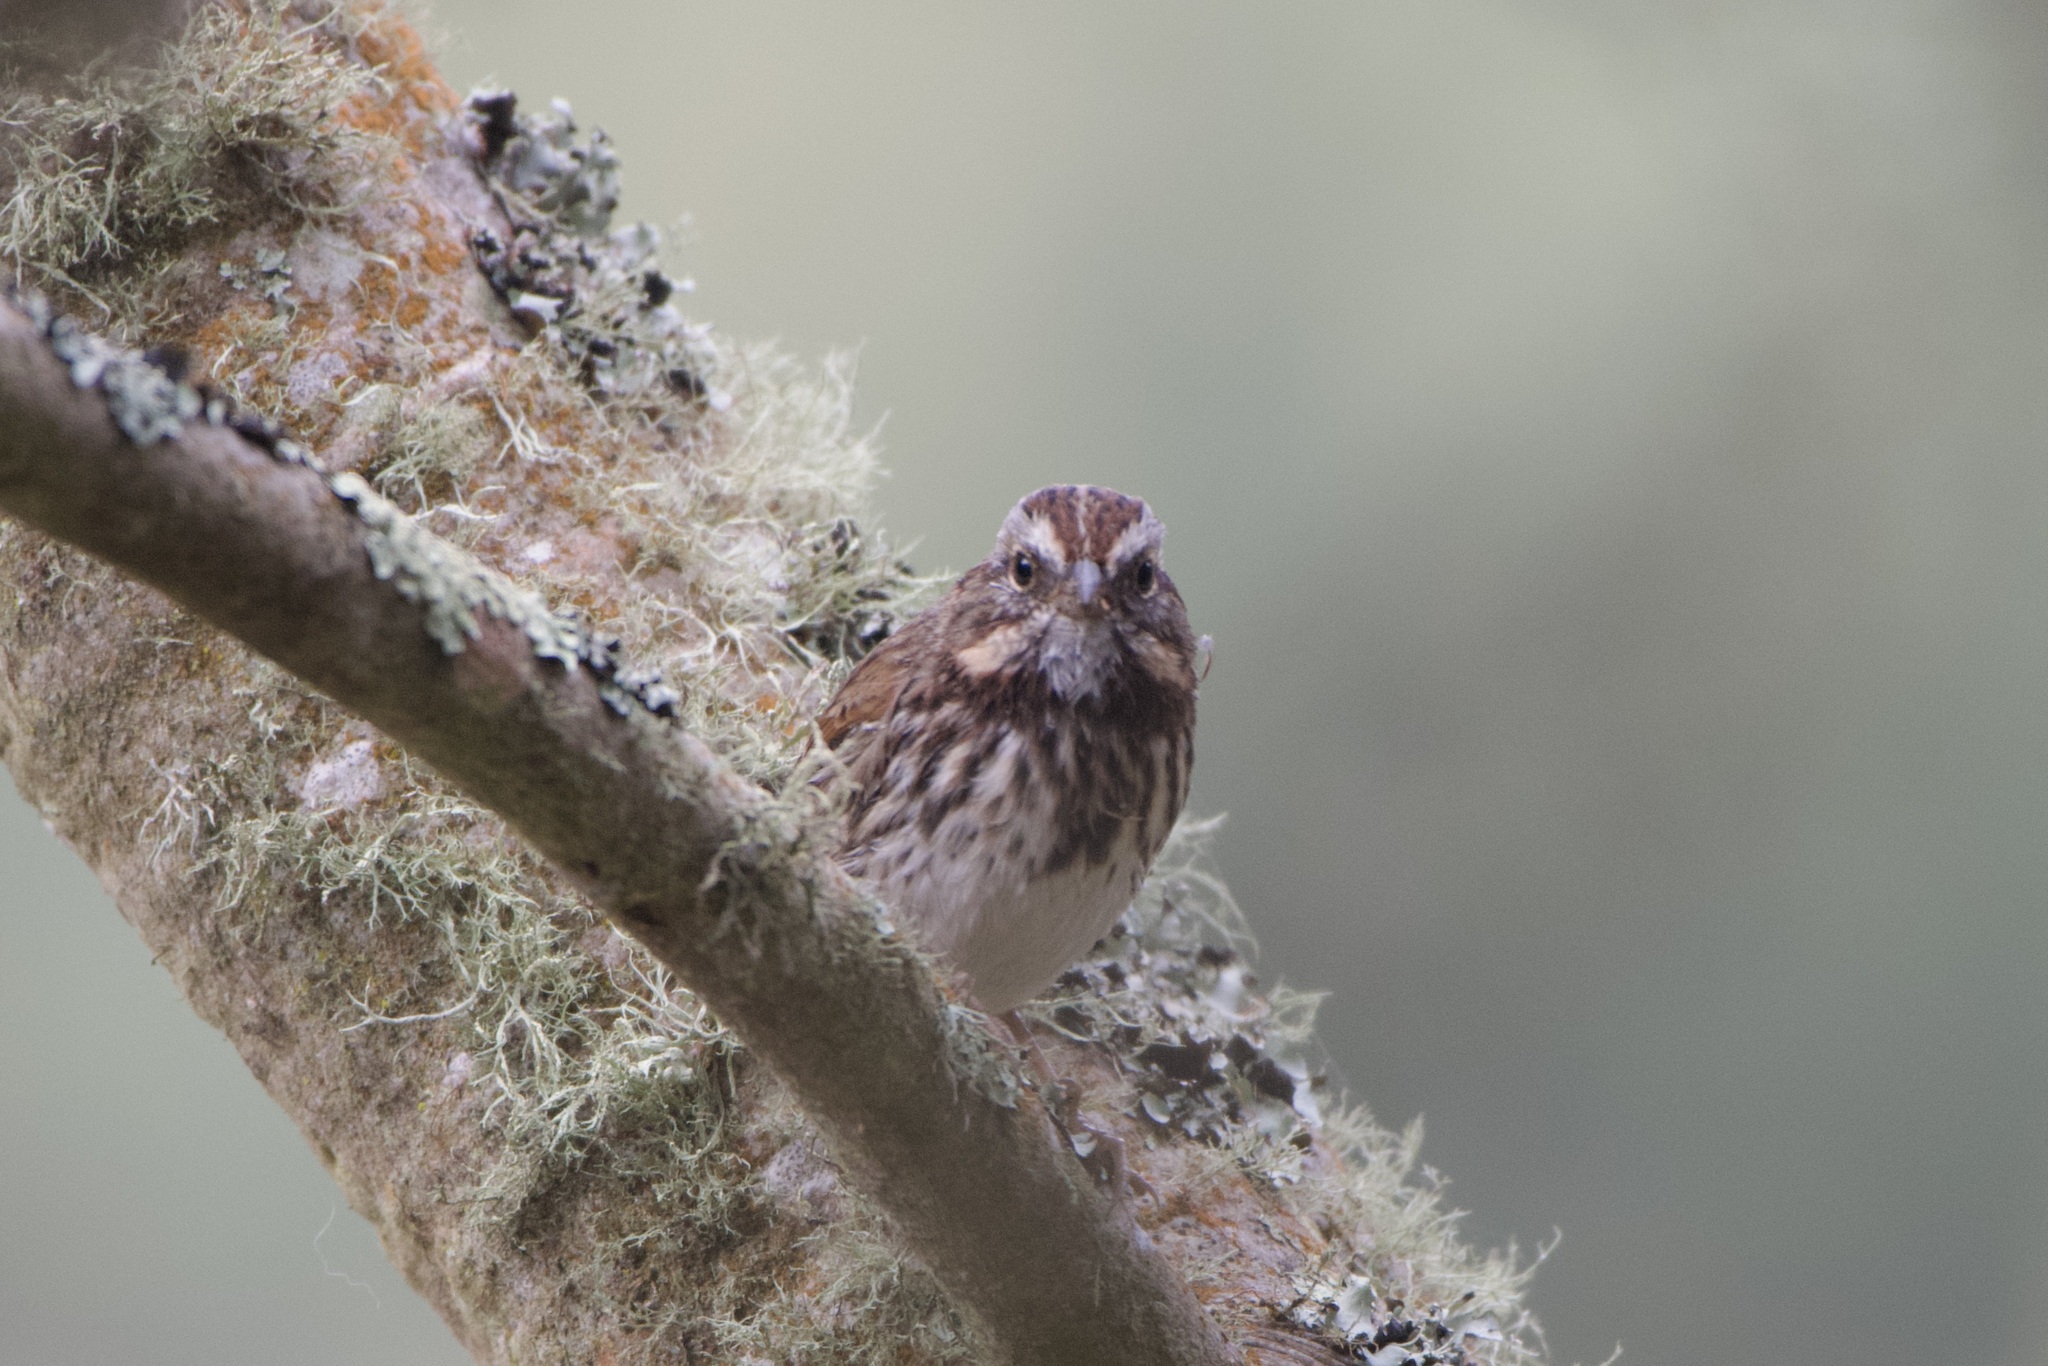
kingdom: Animalia
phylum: Chordata
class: Aves
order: Passeriformes
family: Passerellidae
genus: Melospiza
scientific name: Melospiza melodia
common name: Song sparrow
